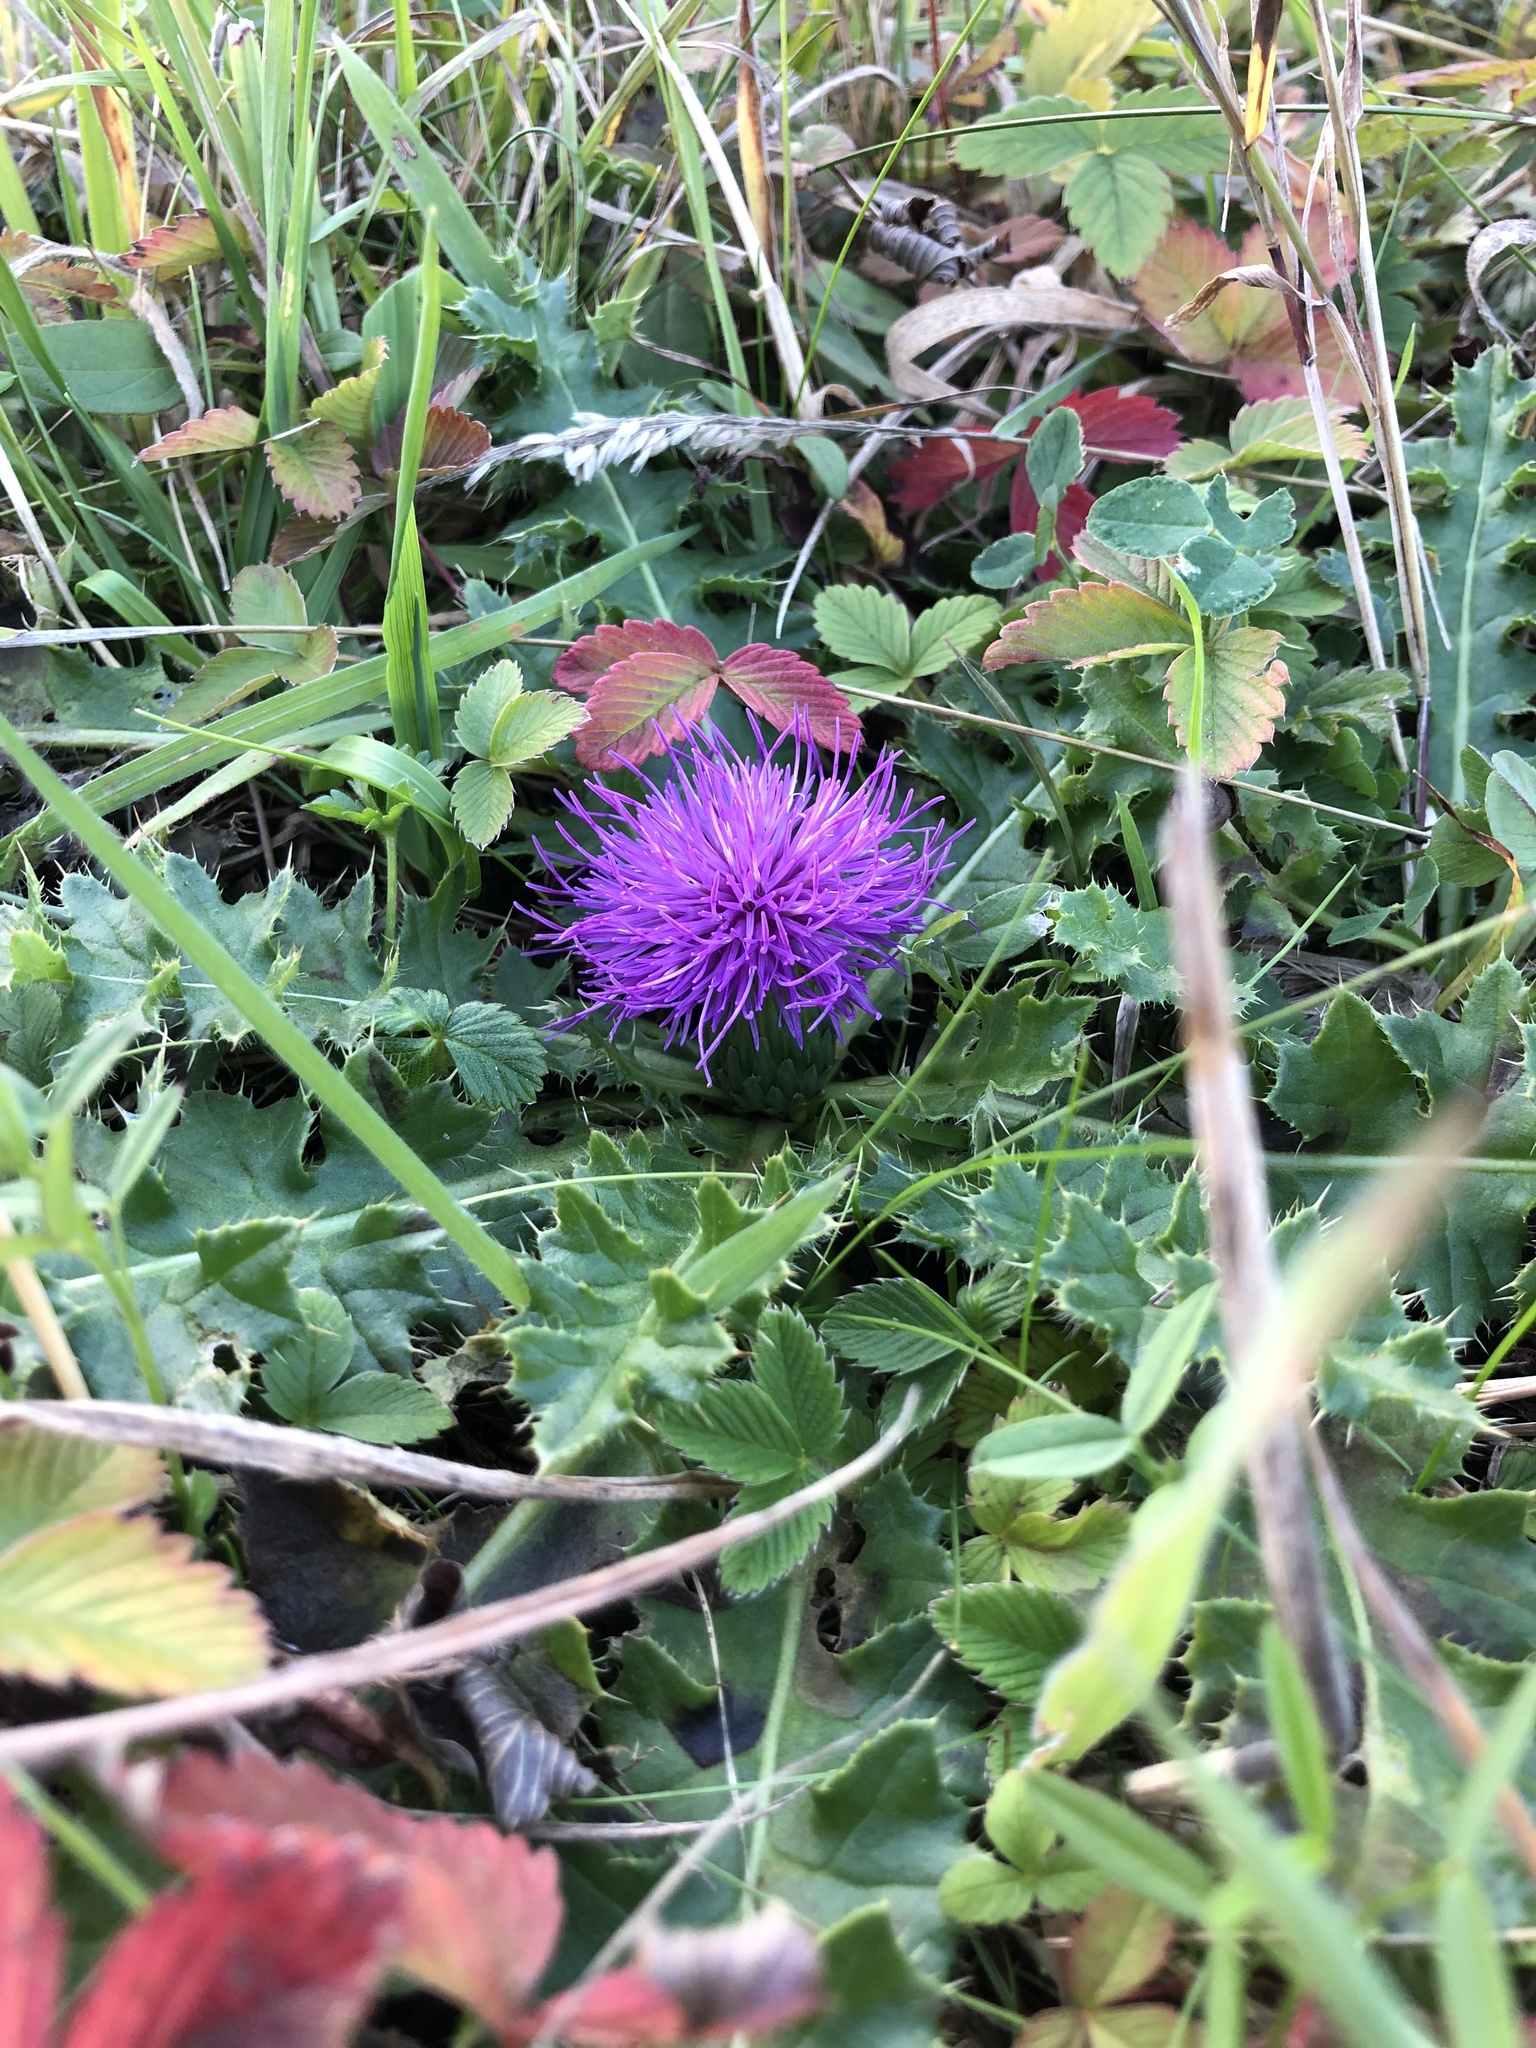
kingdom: Plantae
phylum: Tracheophyta
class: Magnoliopsida
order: Asterales
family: Asteraceae
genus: Cirsium
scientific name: Cirsium acaulon
